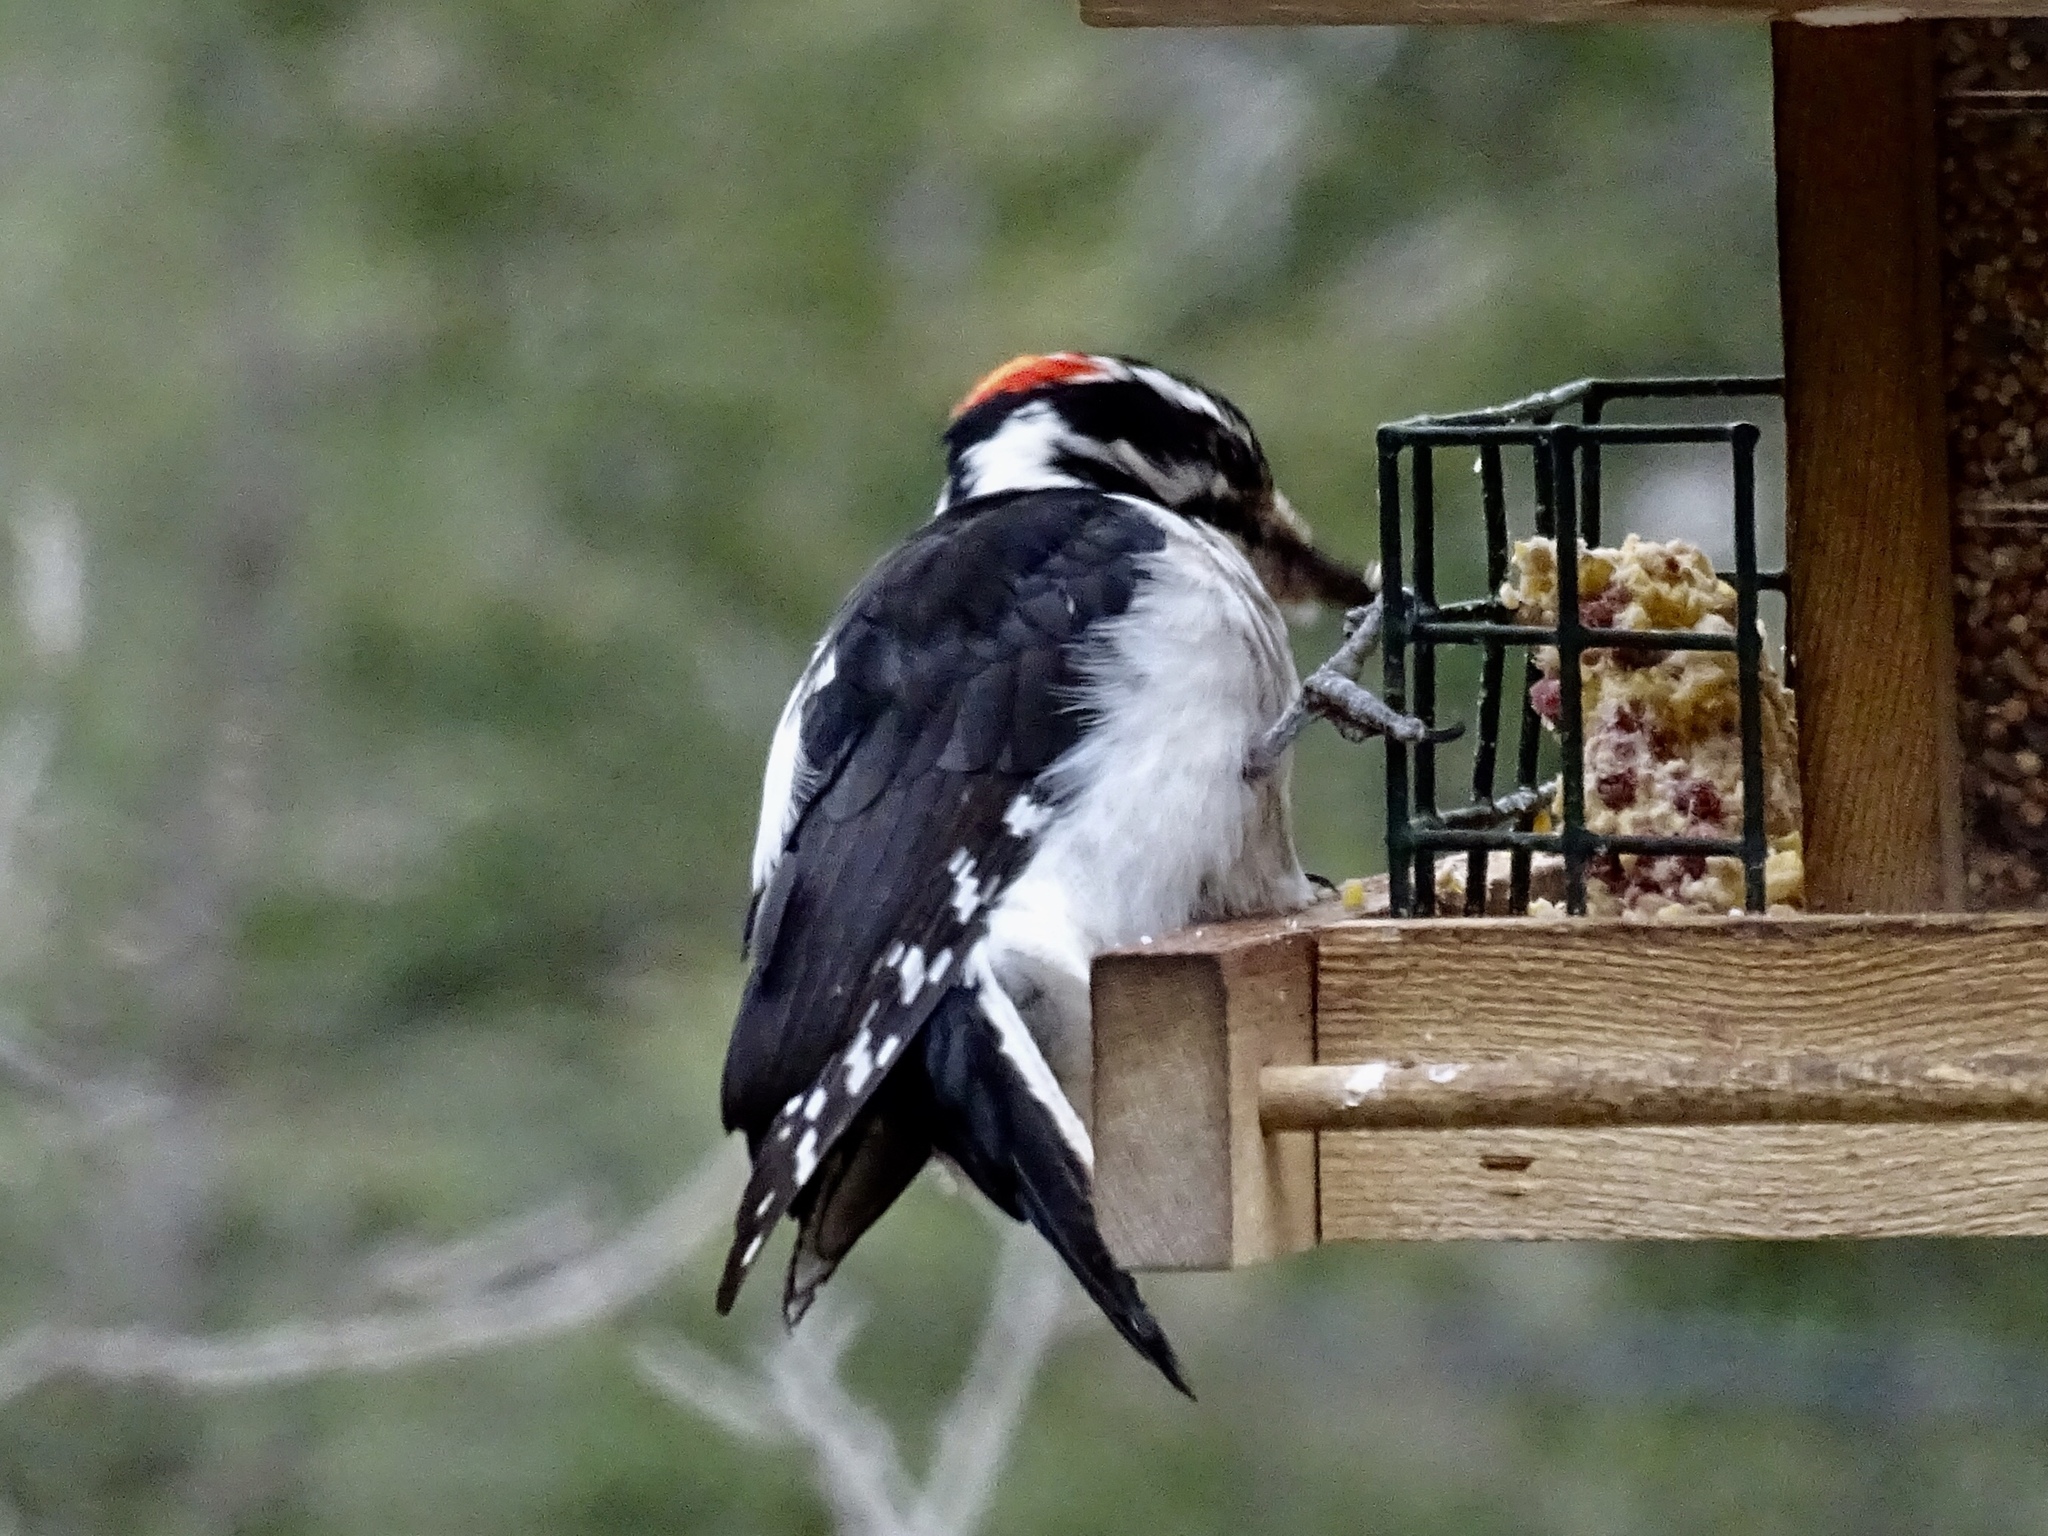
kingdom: Animalia
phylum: Chordata
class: Aves
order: Piciformes
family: Picidae
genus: Leuconotopicus
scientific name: Leuconotopicus villosus
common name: Hairy woodpecker
